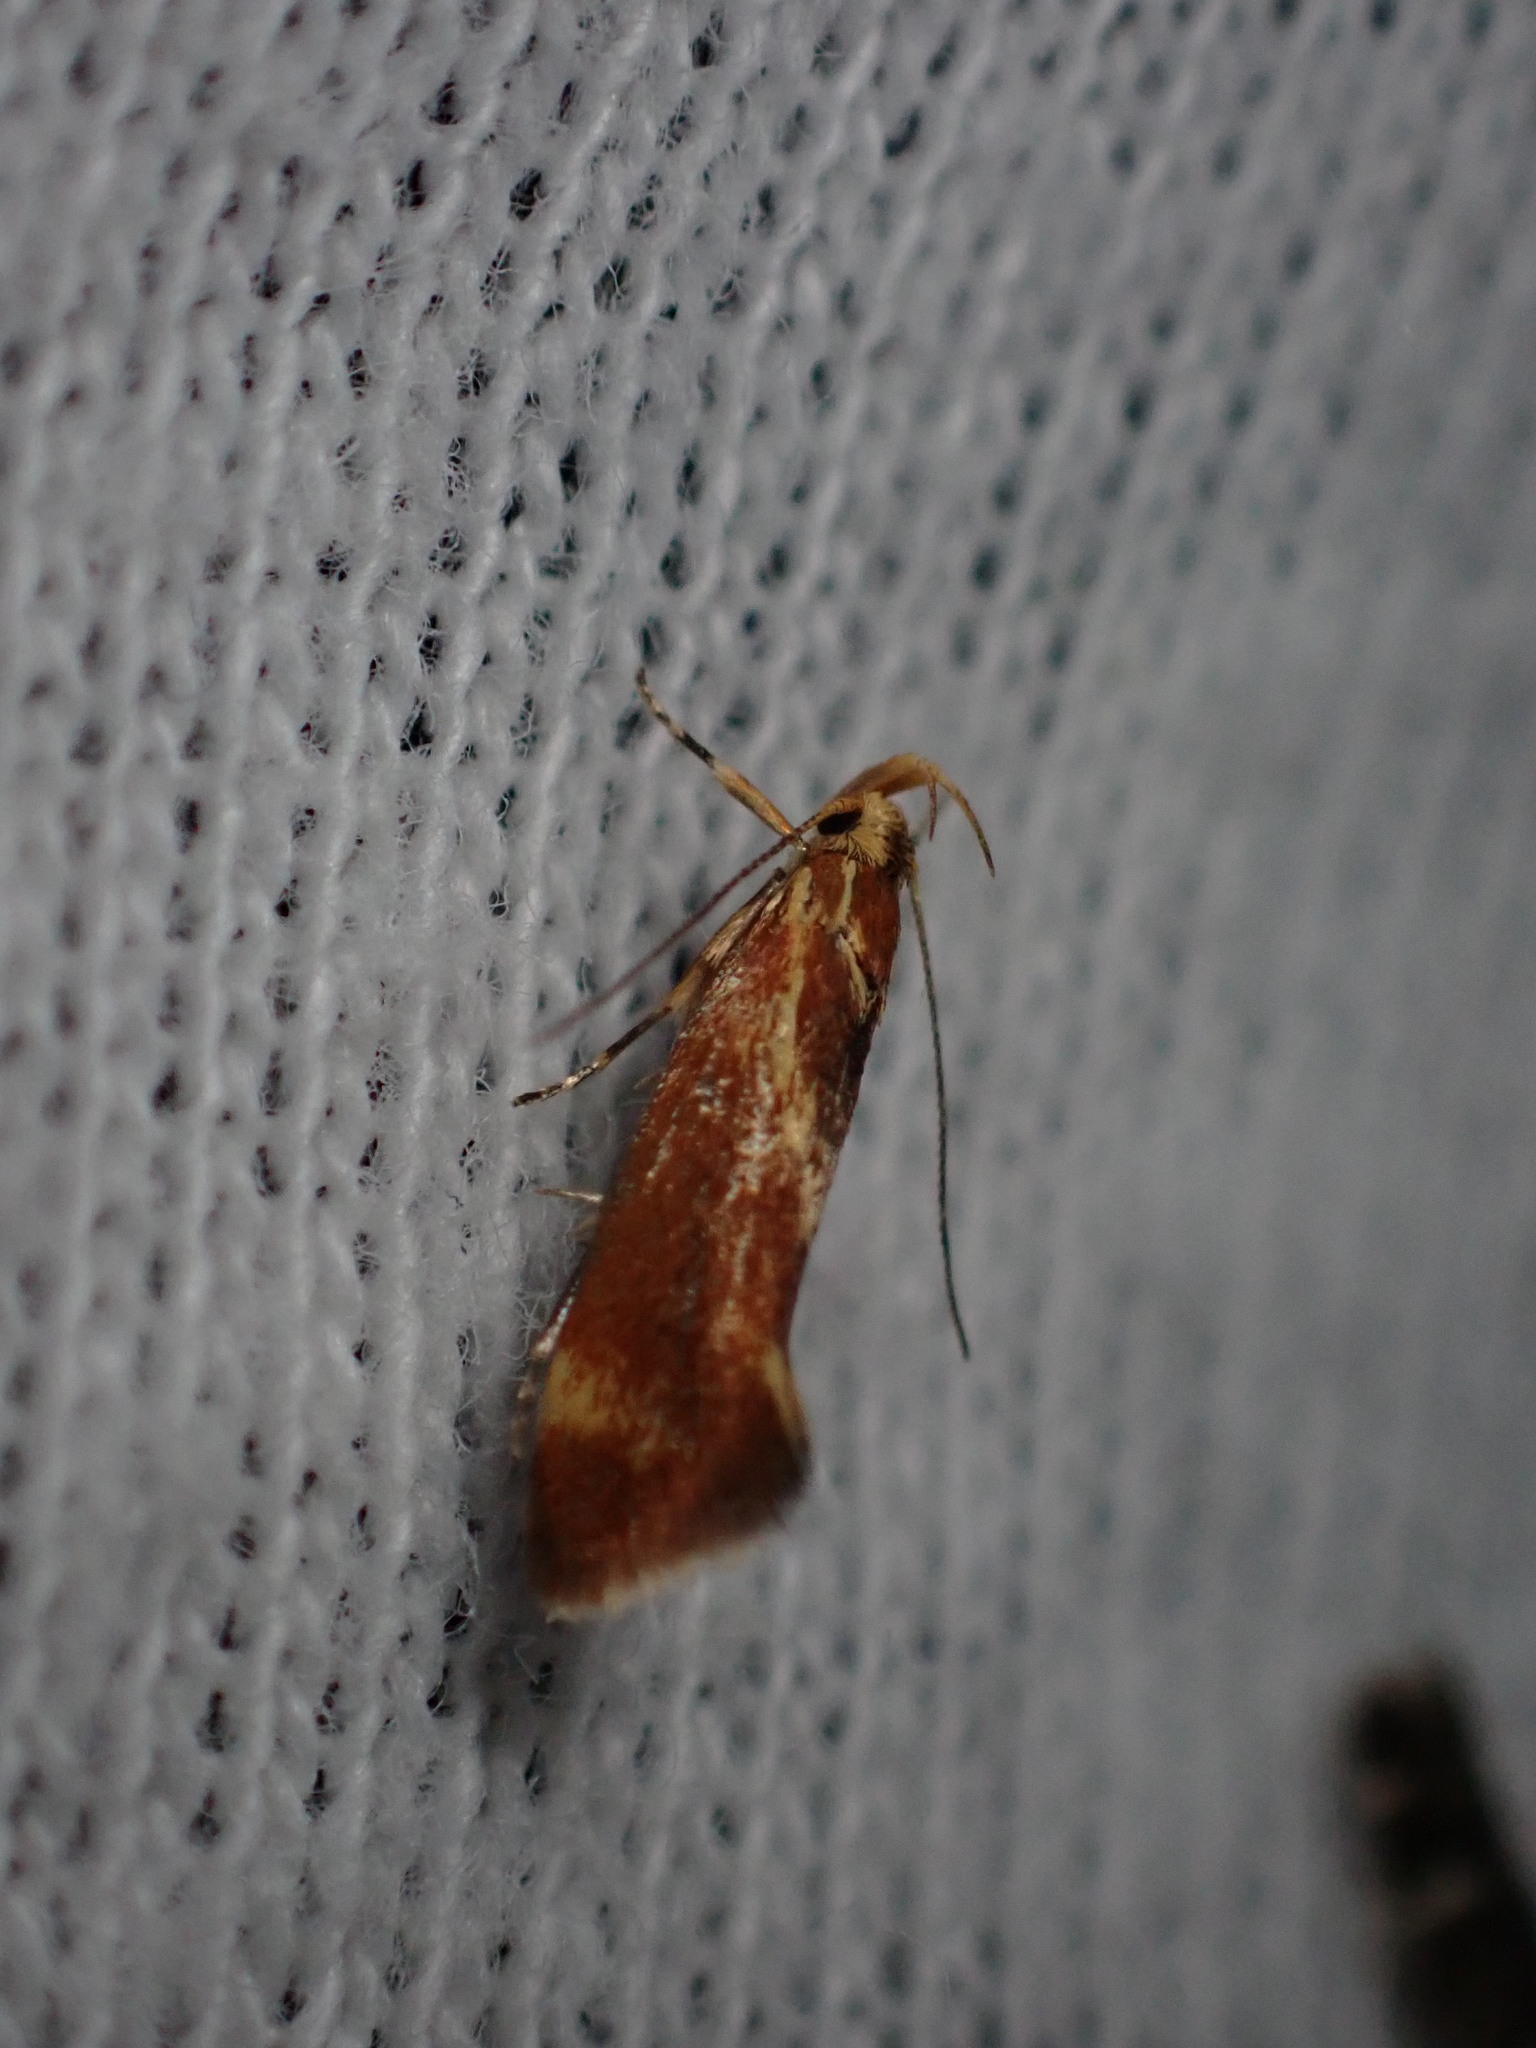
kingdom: Animalia
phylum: Arthropoda
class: Insecta
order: Lepidoptera
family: Oecophoridae
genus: Borkhausenia
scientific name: Borkhausenia italica
